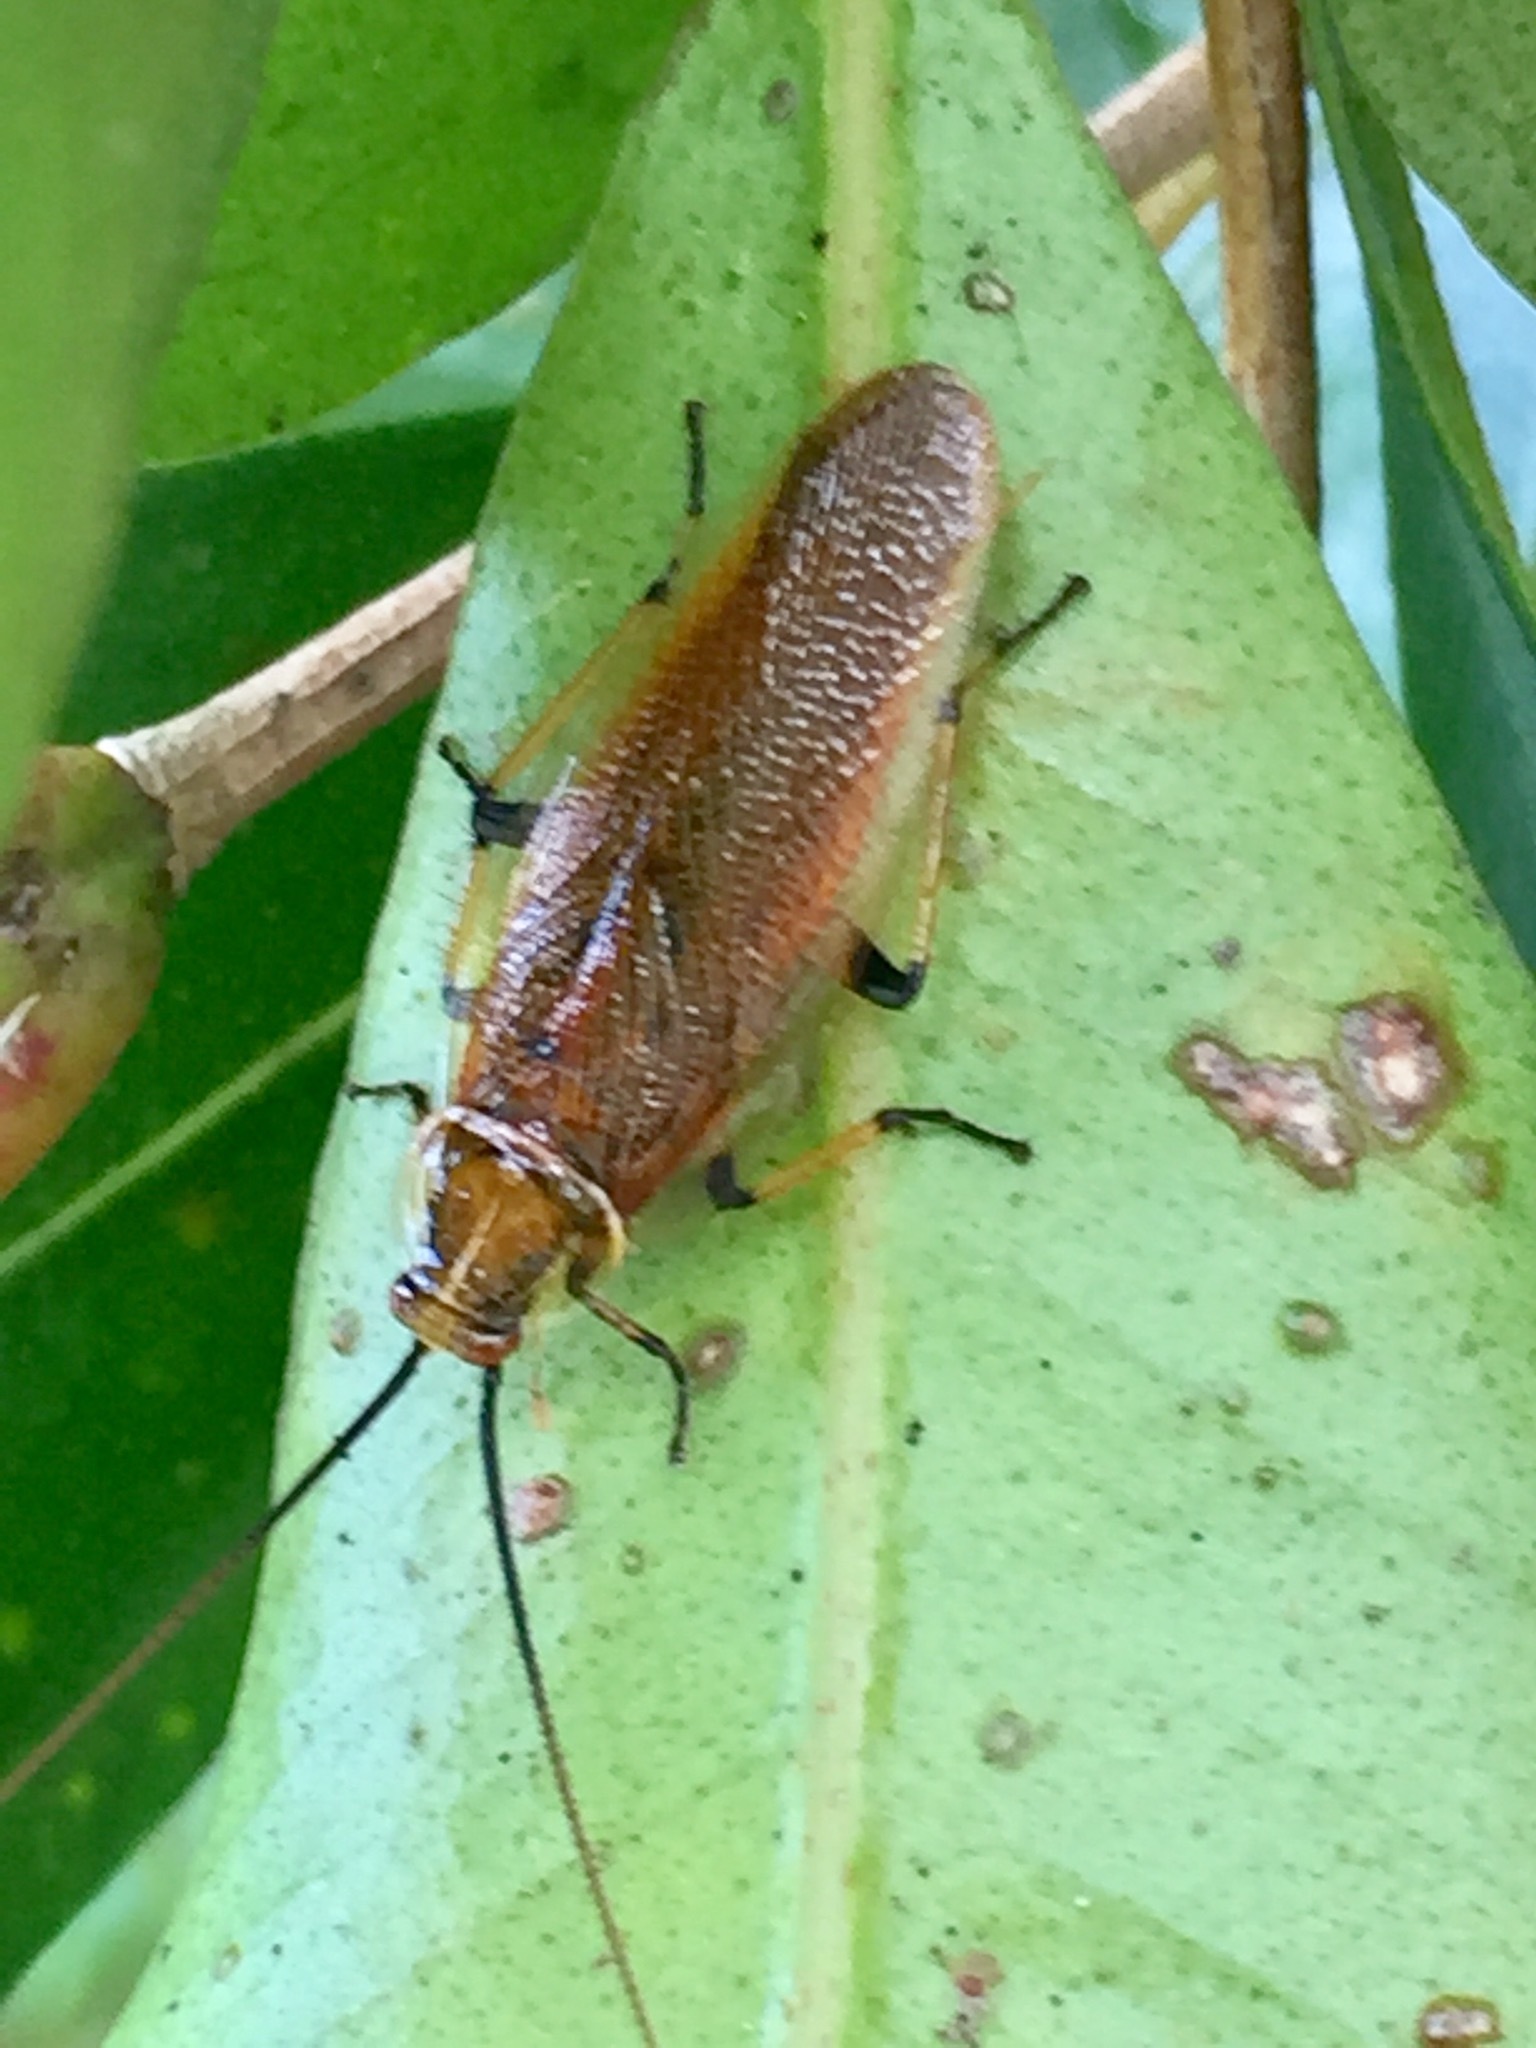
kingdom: Animalia
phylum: Arthropoda
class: Insecta
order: Blattodea
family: Ectobiidae
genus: Balta
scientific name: Balta bicolor
